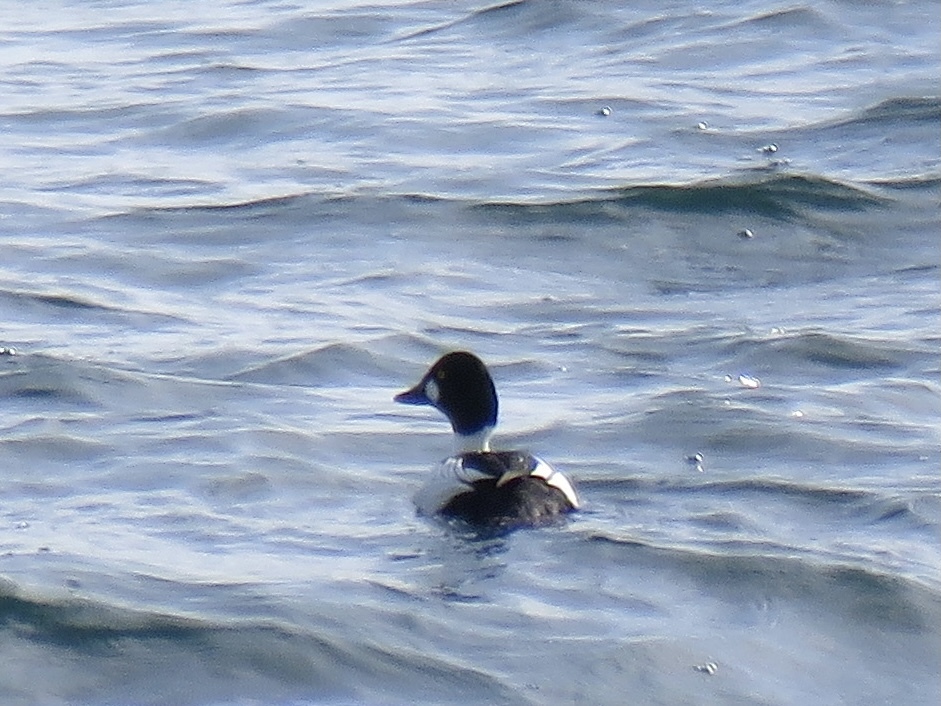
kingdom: Animalia
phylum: Chordata
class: Aves
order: Anseriformes
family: Anatidae
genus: Bucephala
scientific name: Bucephala clangula
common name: Common goldeneye
